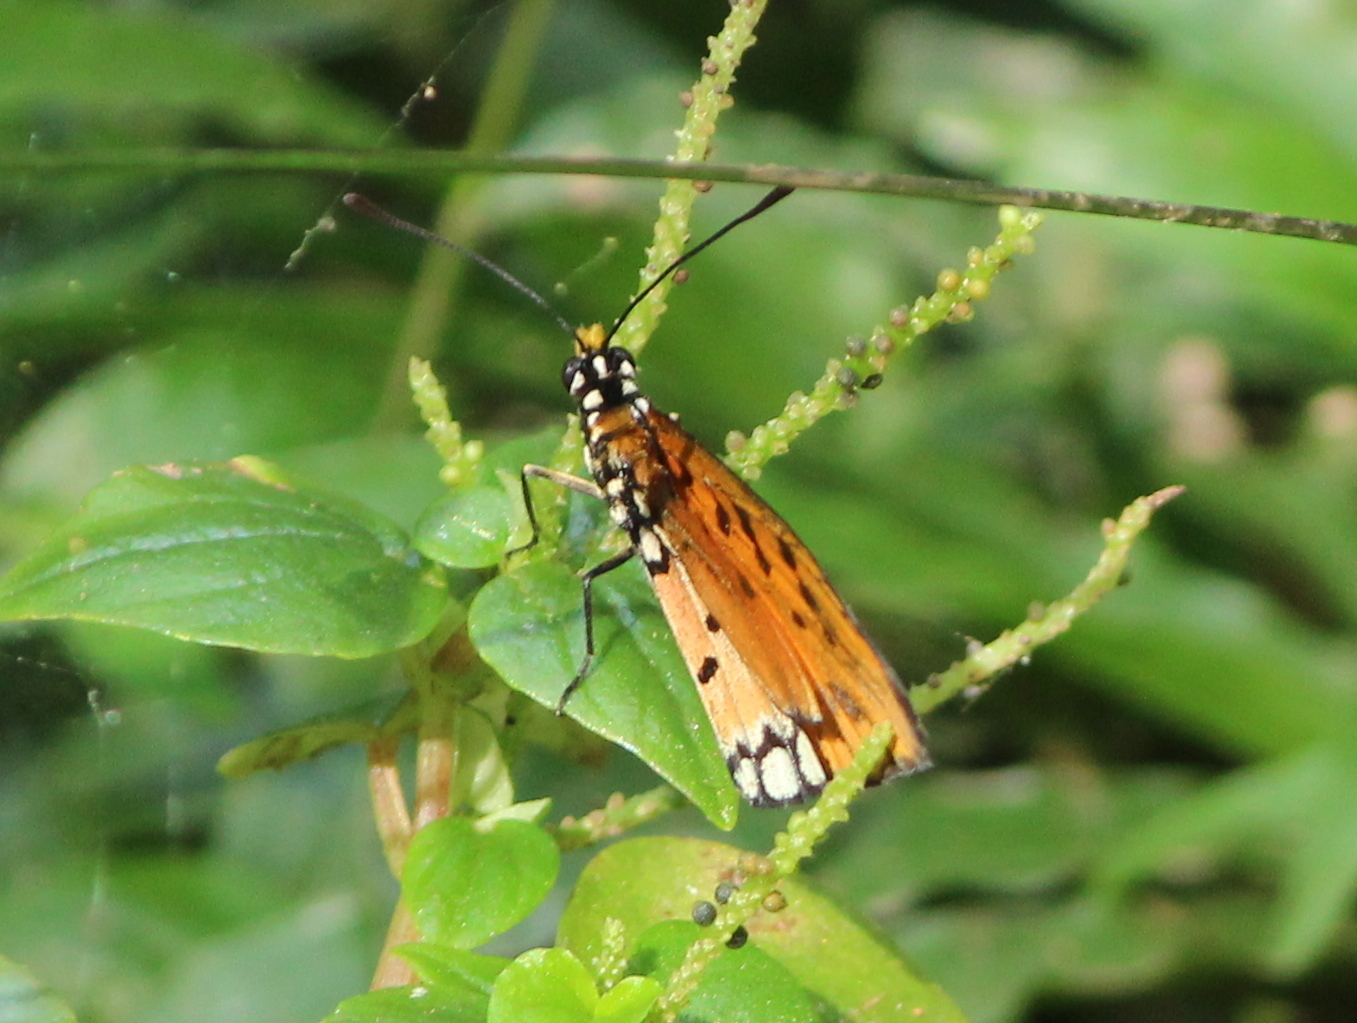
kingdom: Animalia
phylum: Arthropoda
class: Insecta
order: Lepidoptera
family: Nymphalidae
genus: Acraea
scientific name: Acraea terpsicore
